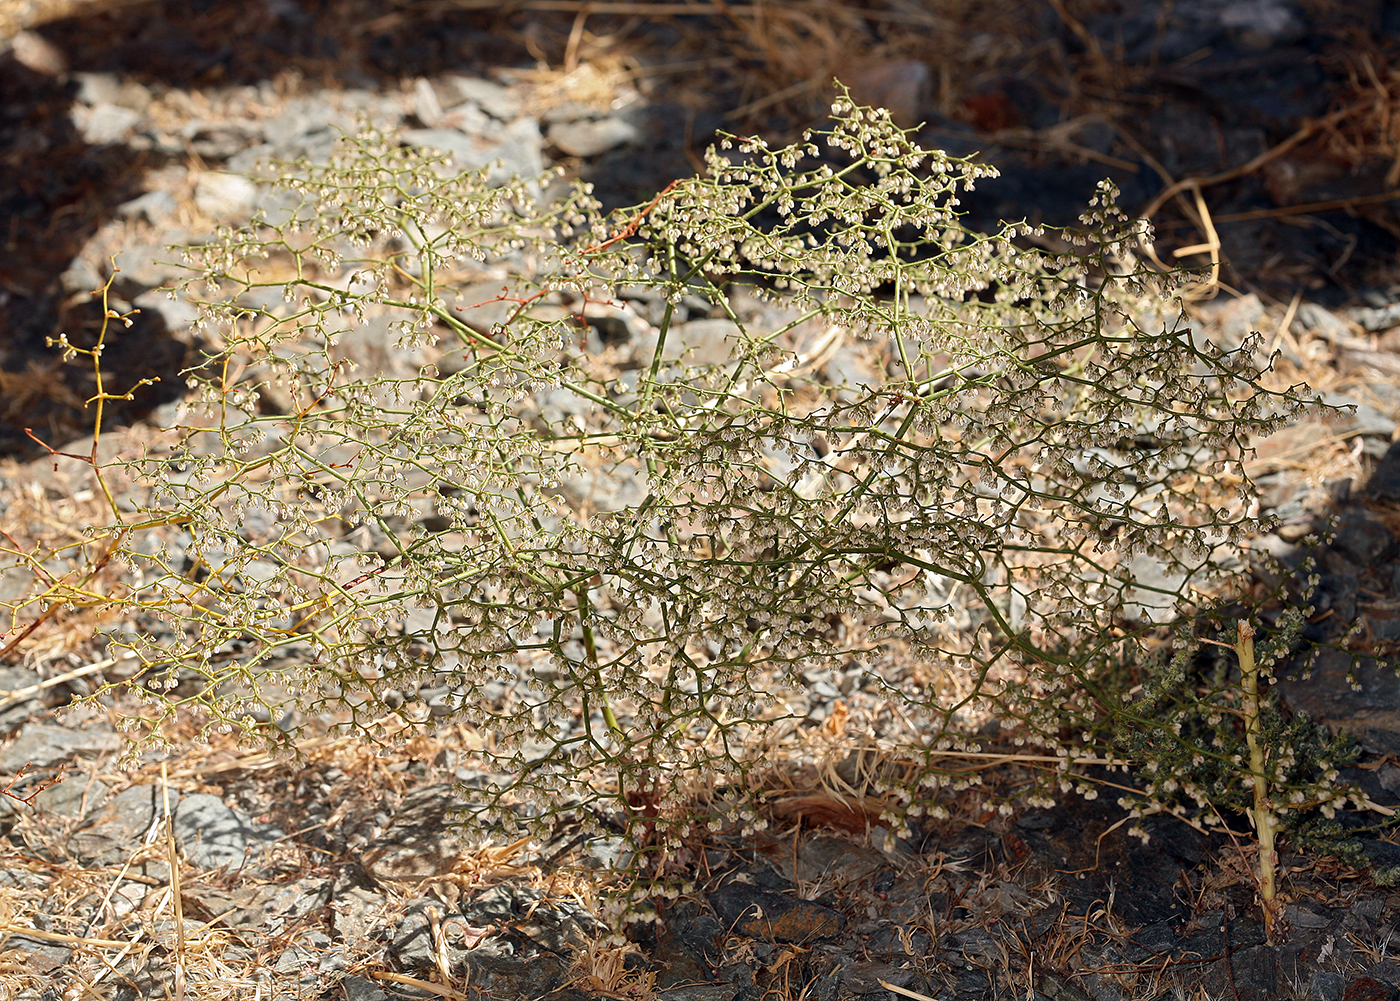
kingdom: Plantae
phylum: Tracheophyta
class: Magnoliopsida
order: Caryophyllales
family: Polygonaceae
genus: Eriogonum
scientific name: Eriogonum brachypodum
